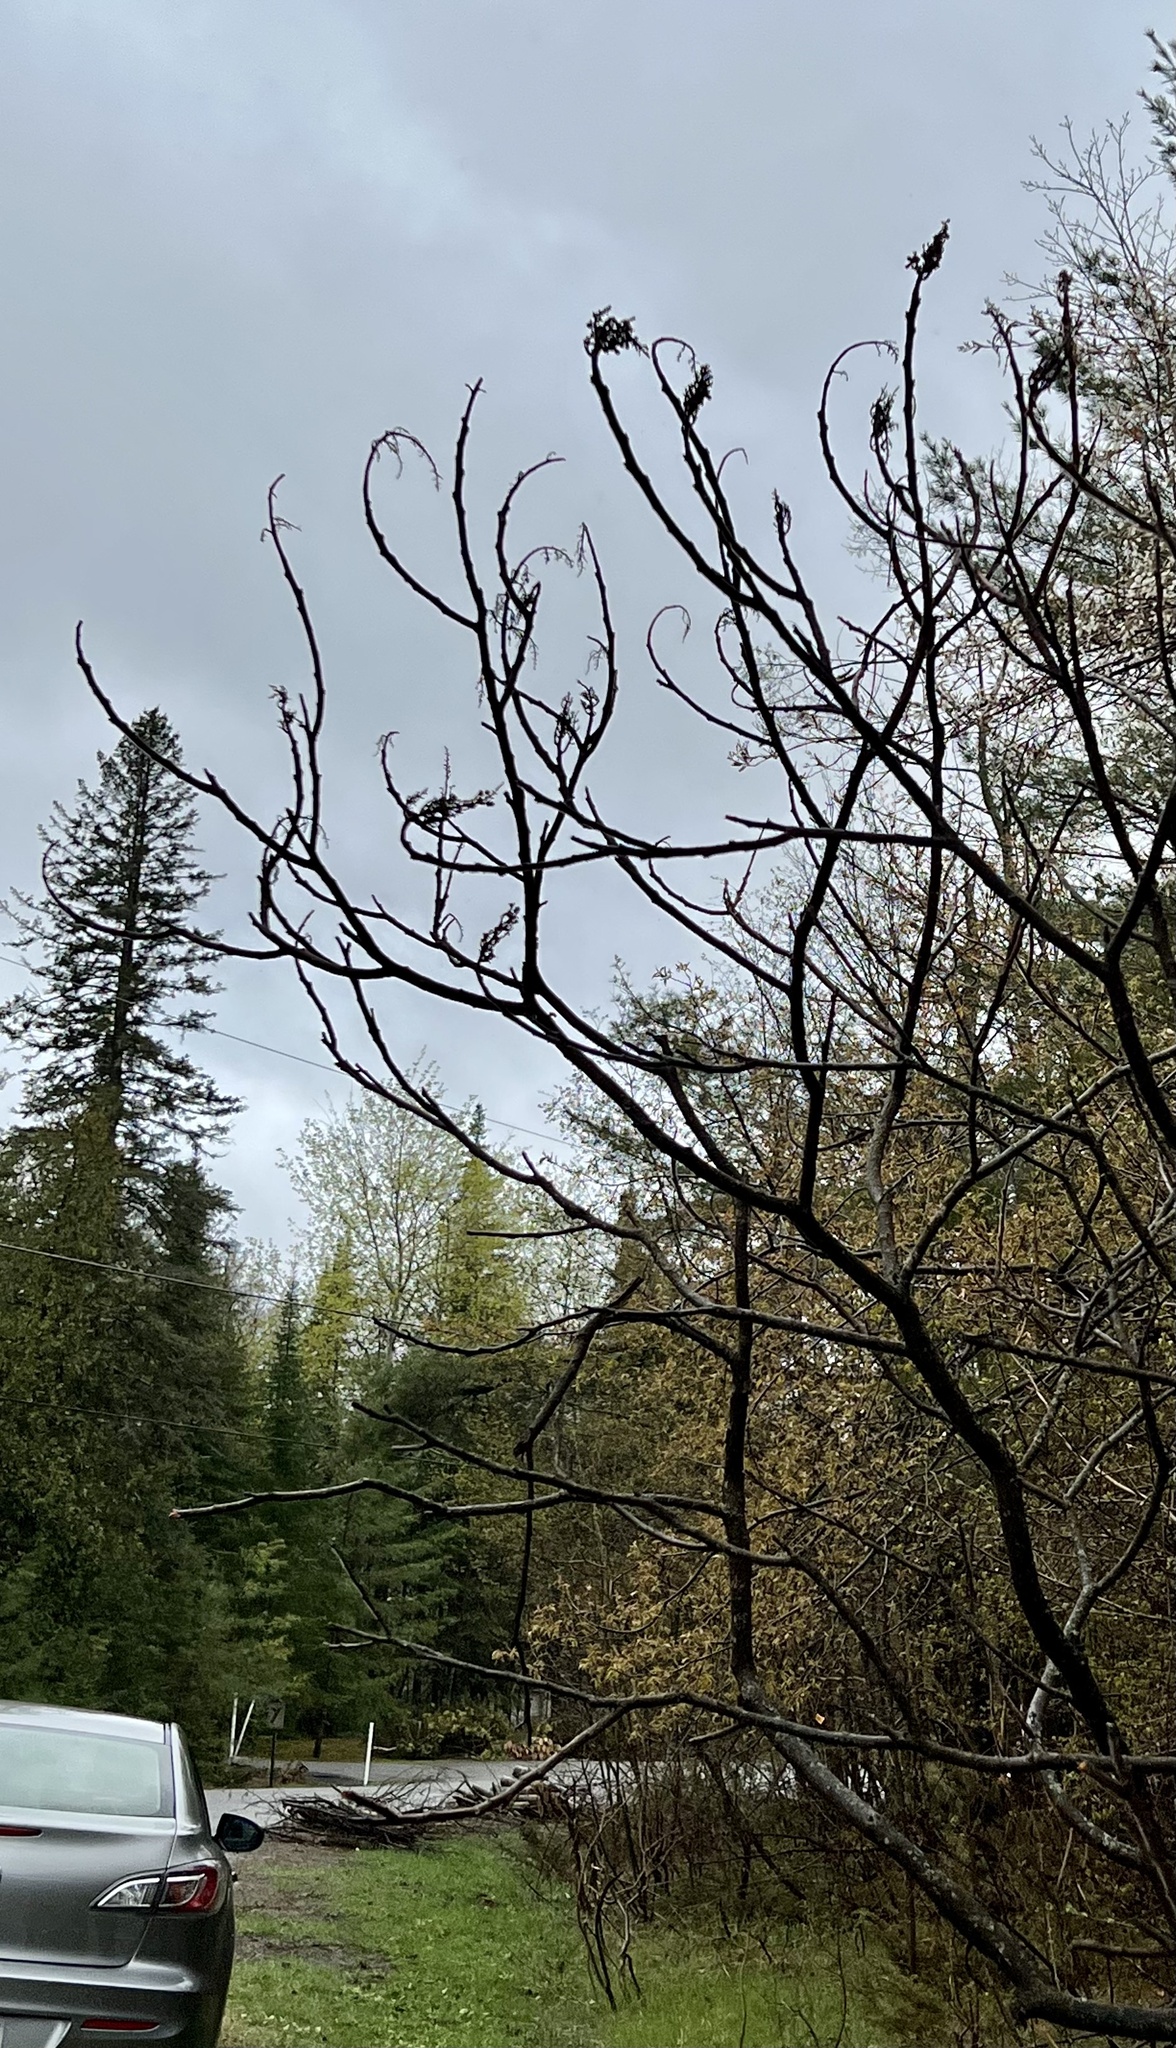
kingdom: Plantae
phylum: Tracheophyta
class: Magnoliopsida
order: Sapindales
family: Anacardiaceae
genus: Rhus
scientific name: Rhus typhina
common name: Staghorn sumac
